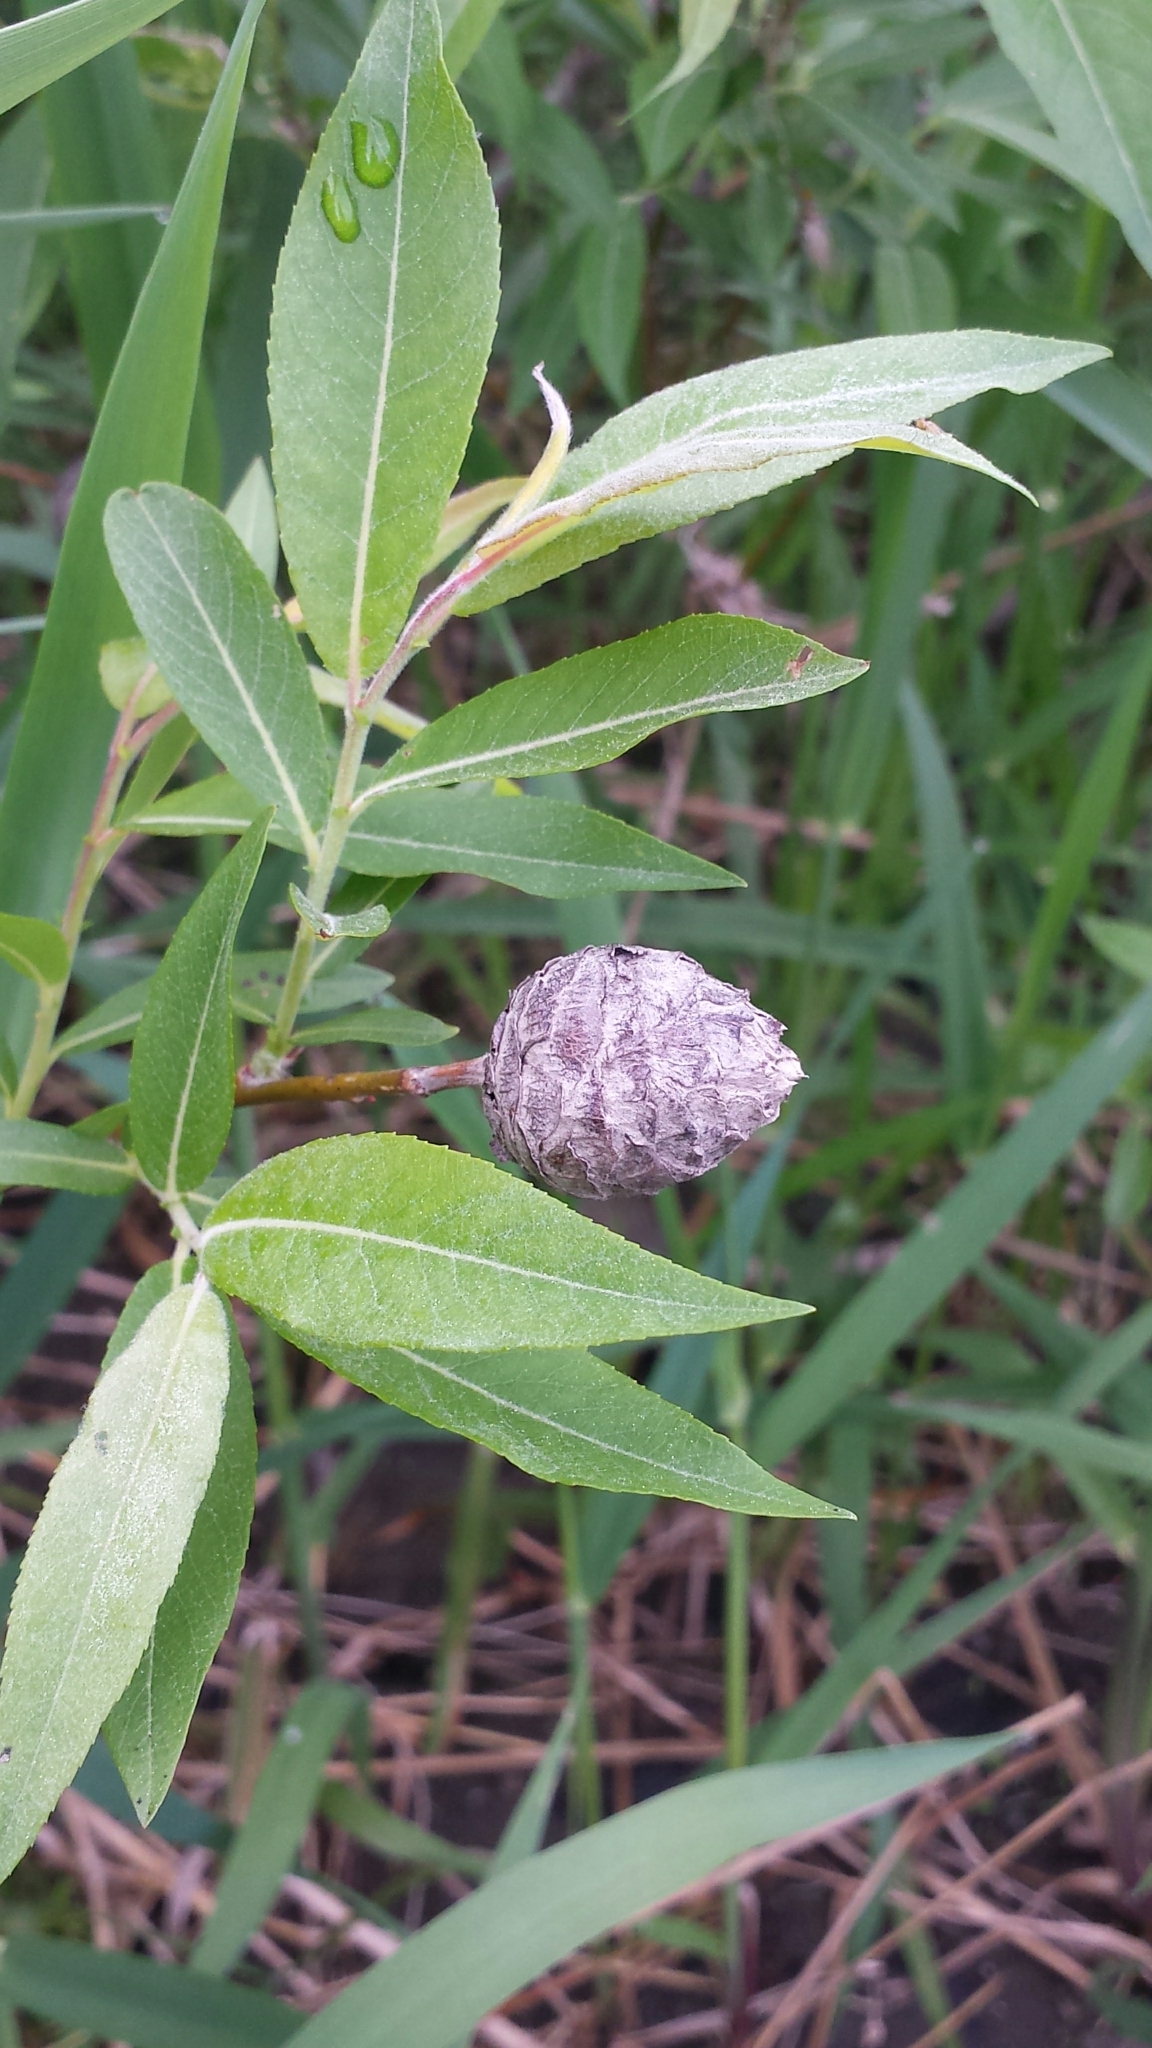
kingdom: Animalia
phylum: Arthropoda
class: Insecta
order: Diptera
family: Cecidomyiidae
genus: Rabdophaga
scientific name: Rabdophaga strobiloides
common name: Willow pinecone gall midge
